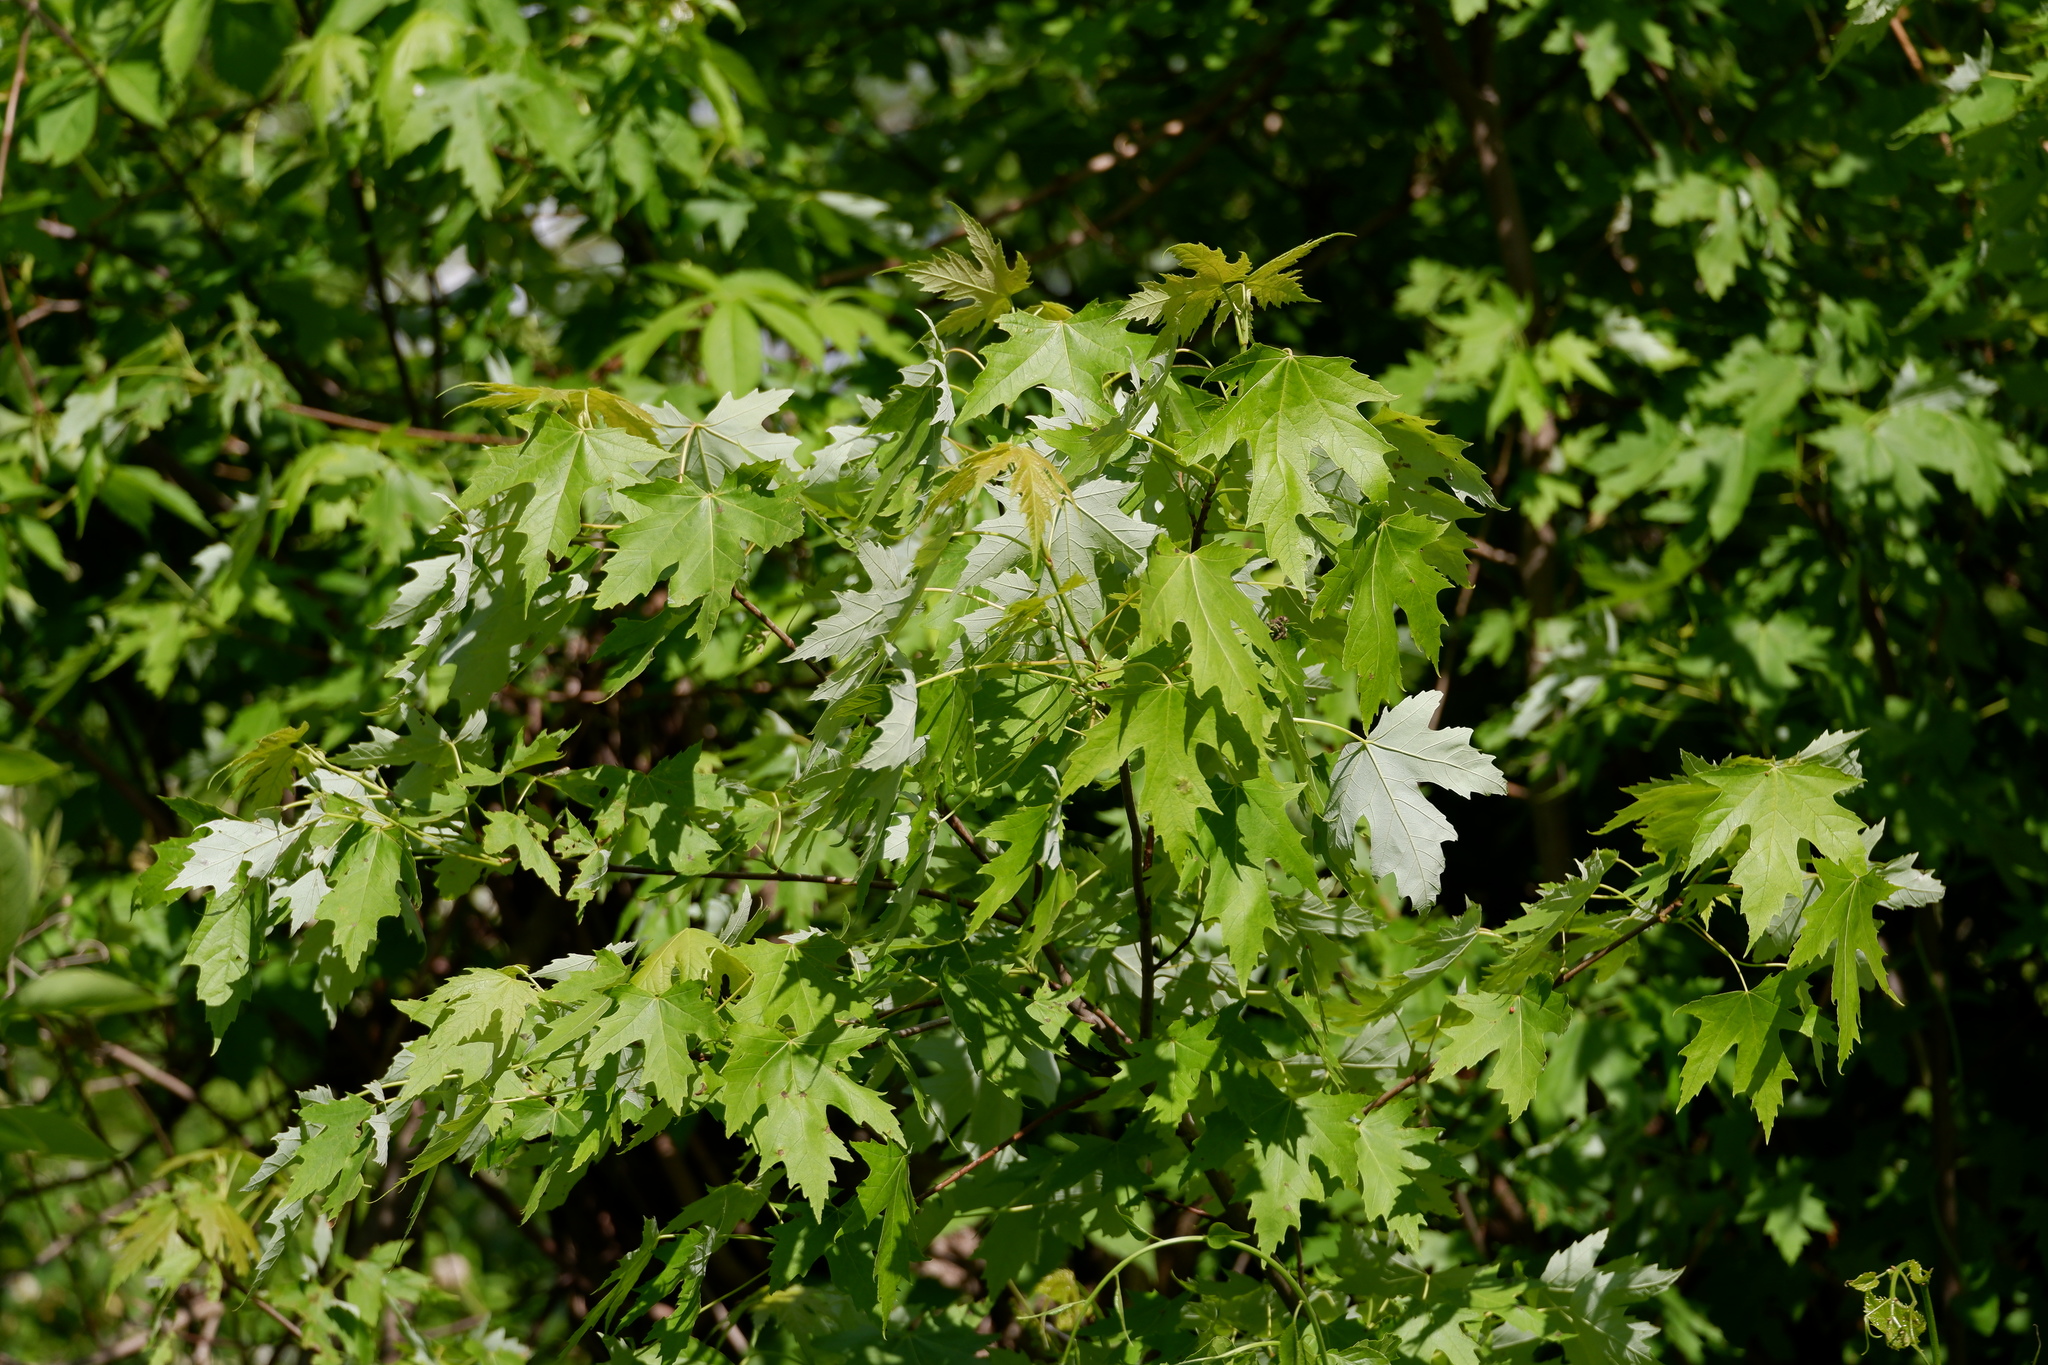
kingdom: Plantae
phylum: Tracheophyta
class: Magnoliopsida
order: Sapindales
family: Sapindaceae
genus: Acer
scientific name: Acer saccharinum
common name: Silver maple
